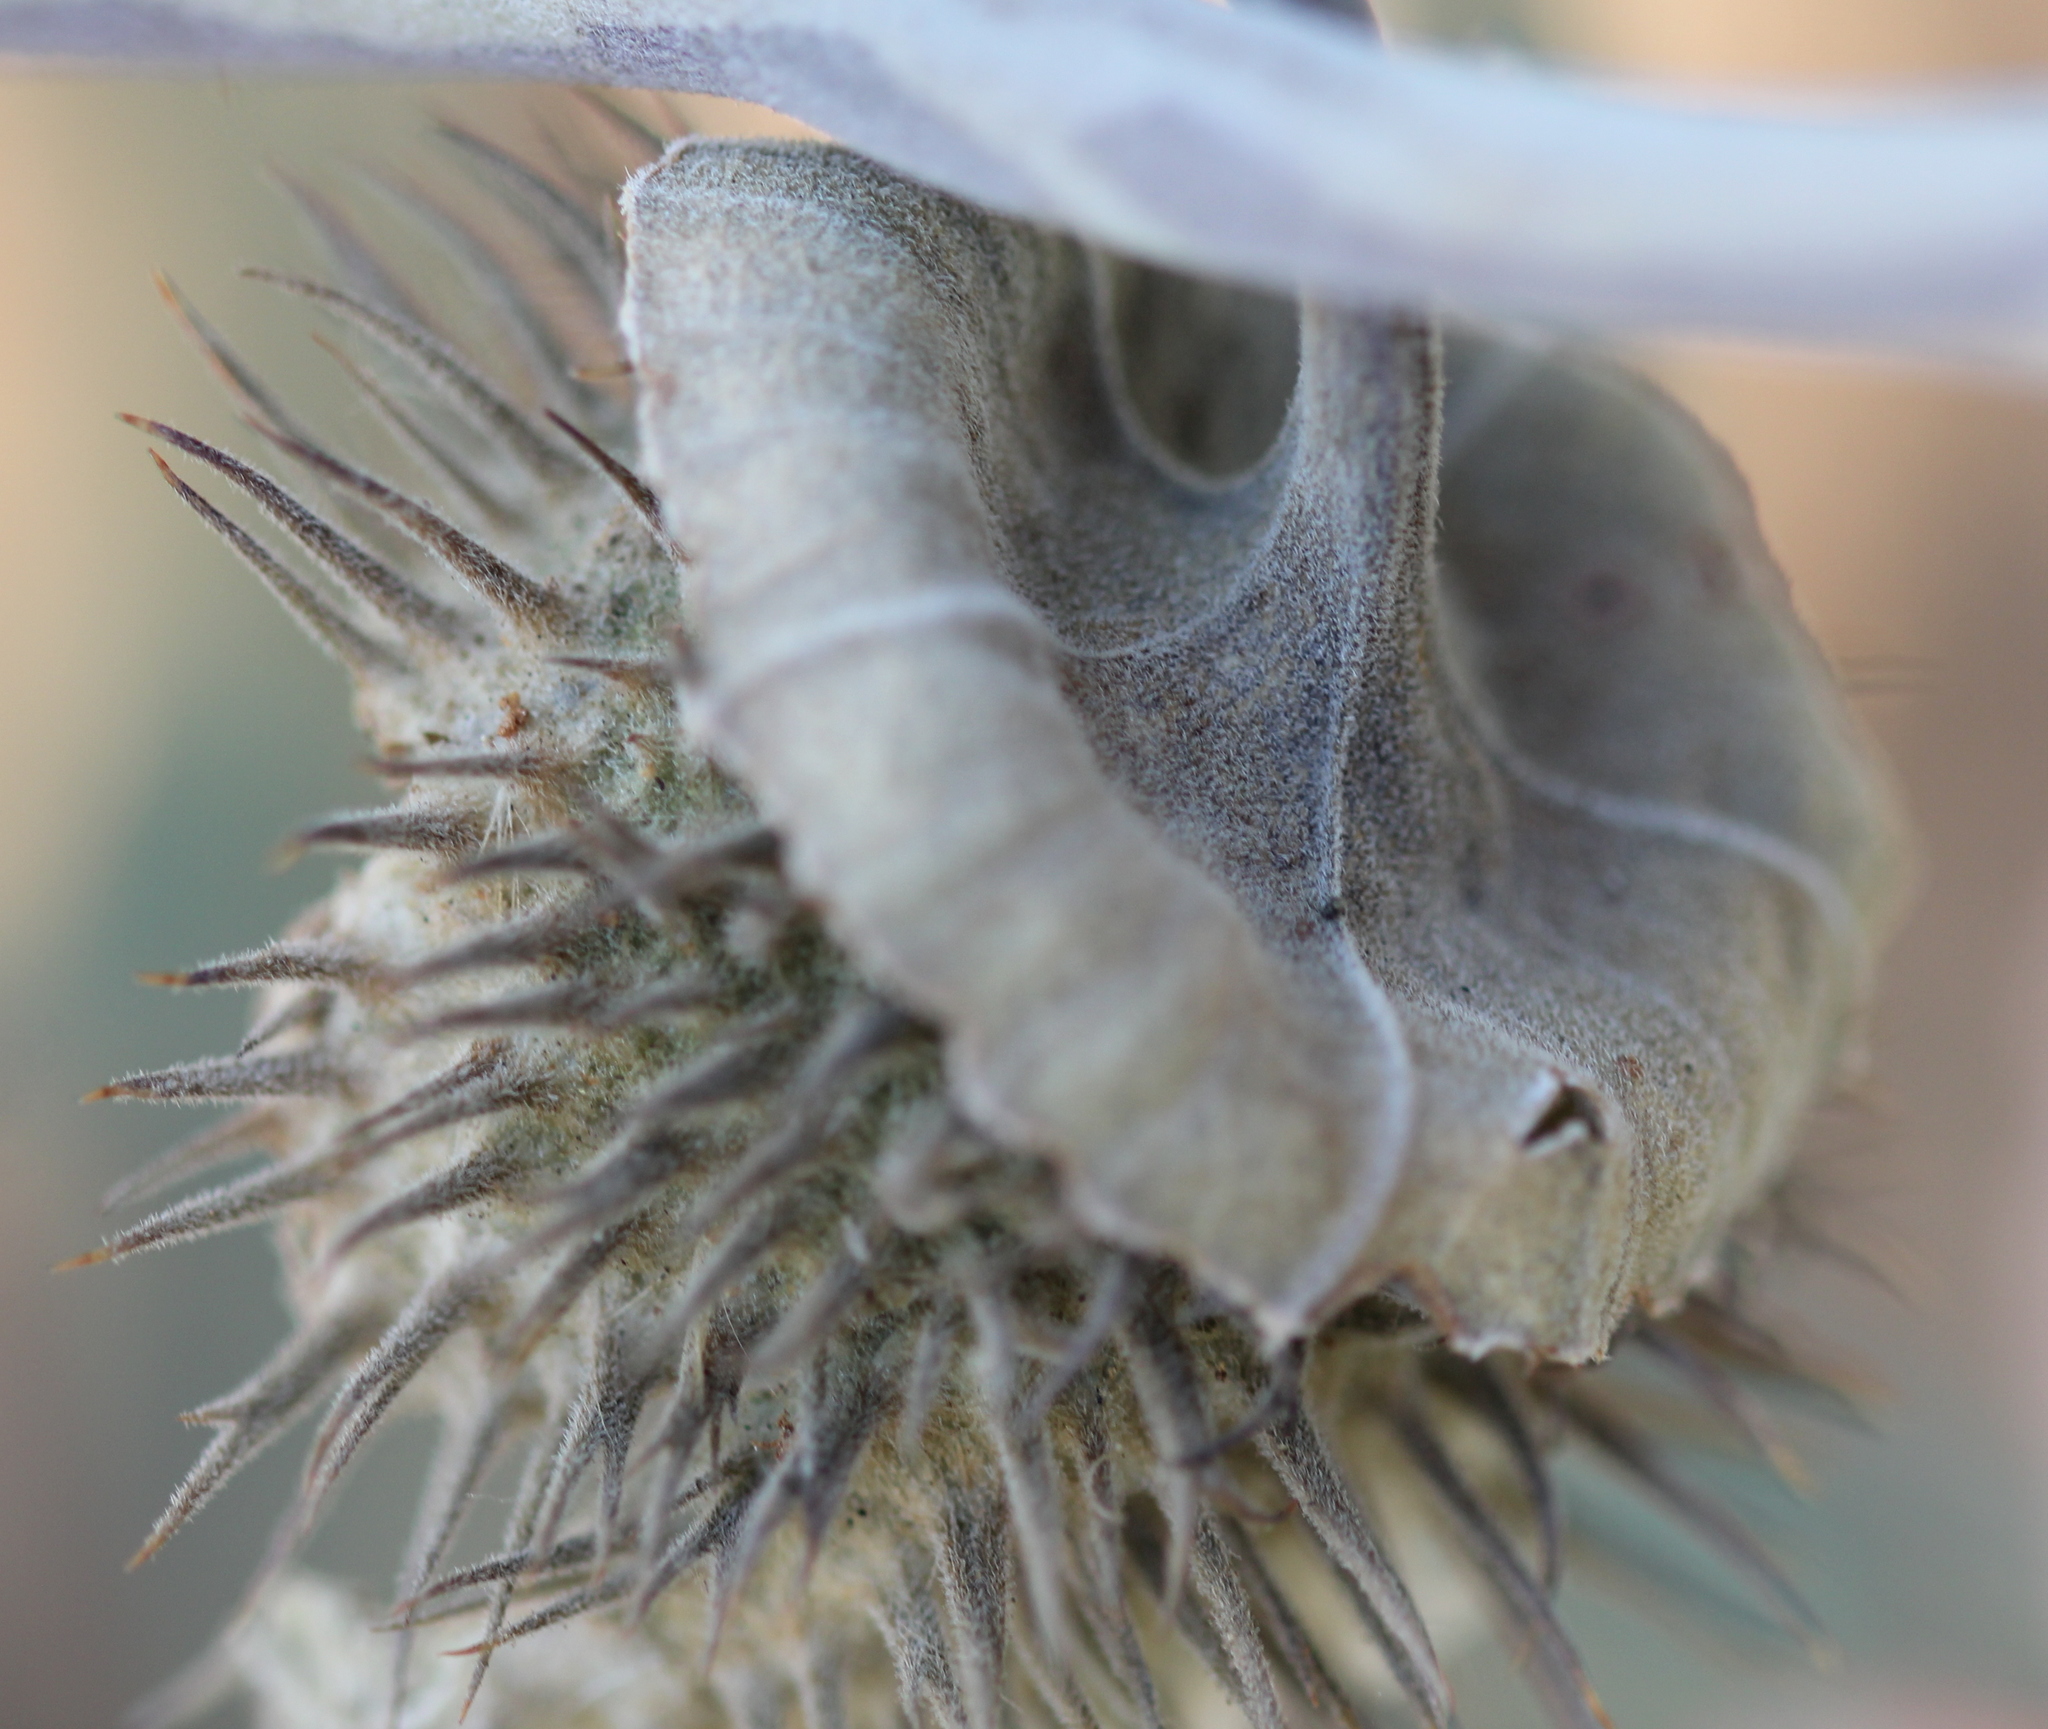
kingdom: Plantae
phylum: Tracheophyta
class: Magnoliopsida
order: Solanales
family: Solanaceae
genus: Datura
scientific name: Datura wrightii
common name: Sacred thorn-apple
